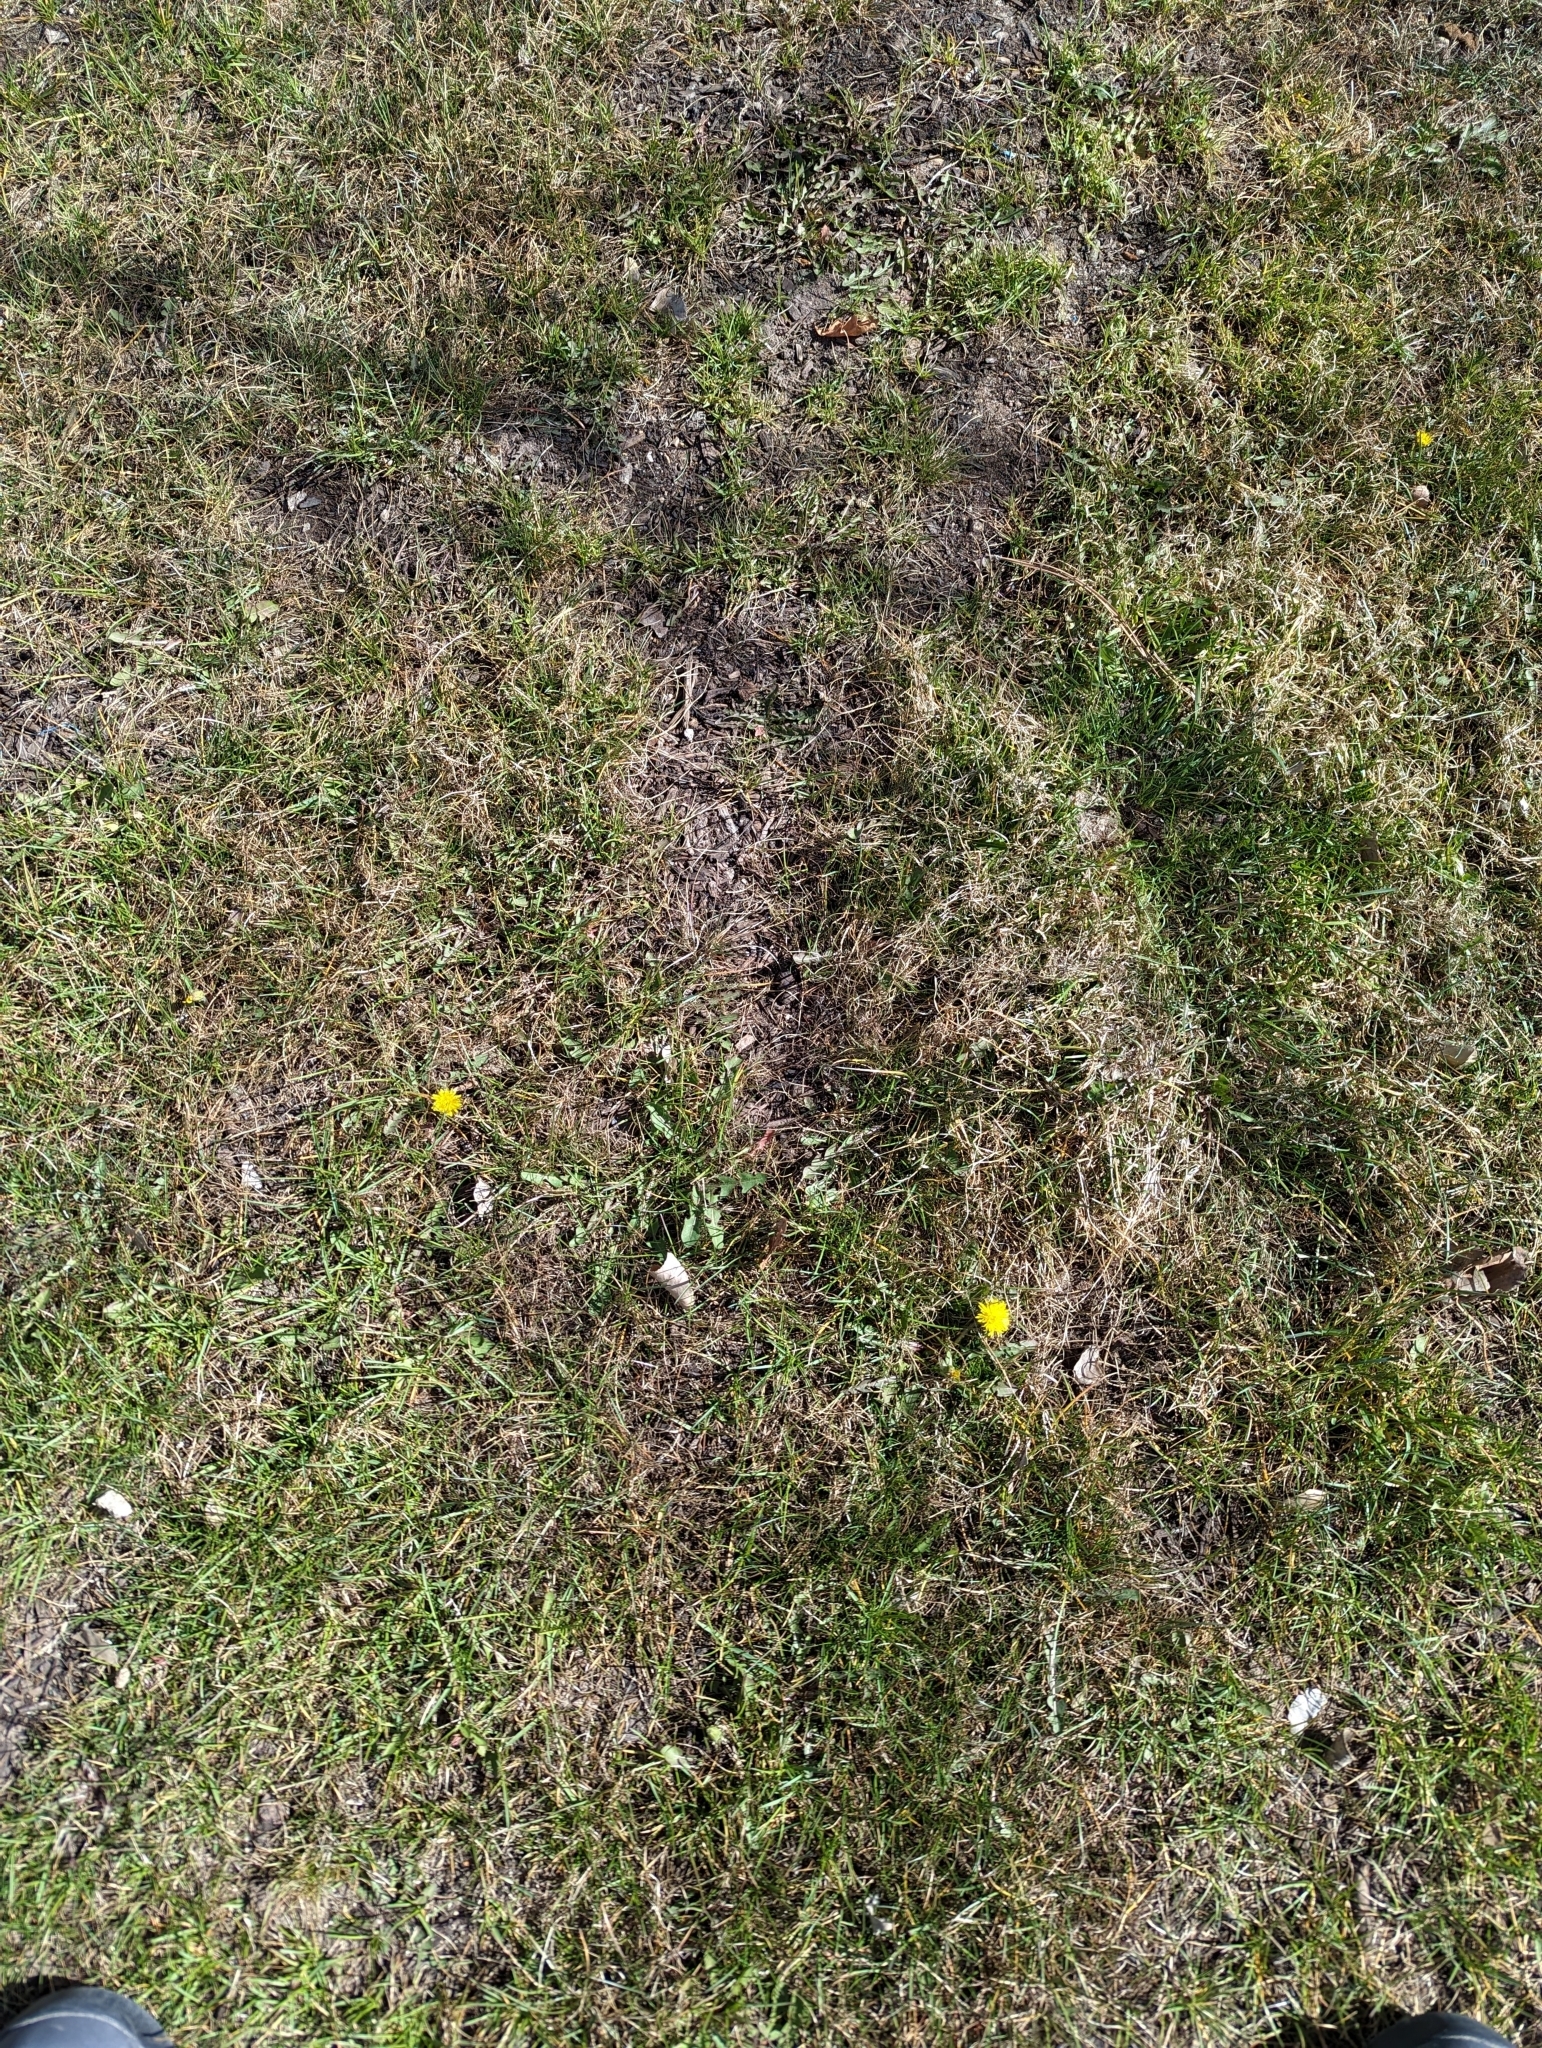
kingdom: Plantae
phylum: Tracheophyta
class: Magnoliopsida
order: Asterales
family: Asteraceae
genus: Taraxacum
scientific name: Taraxacum officinale
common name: Common dandelion
